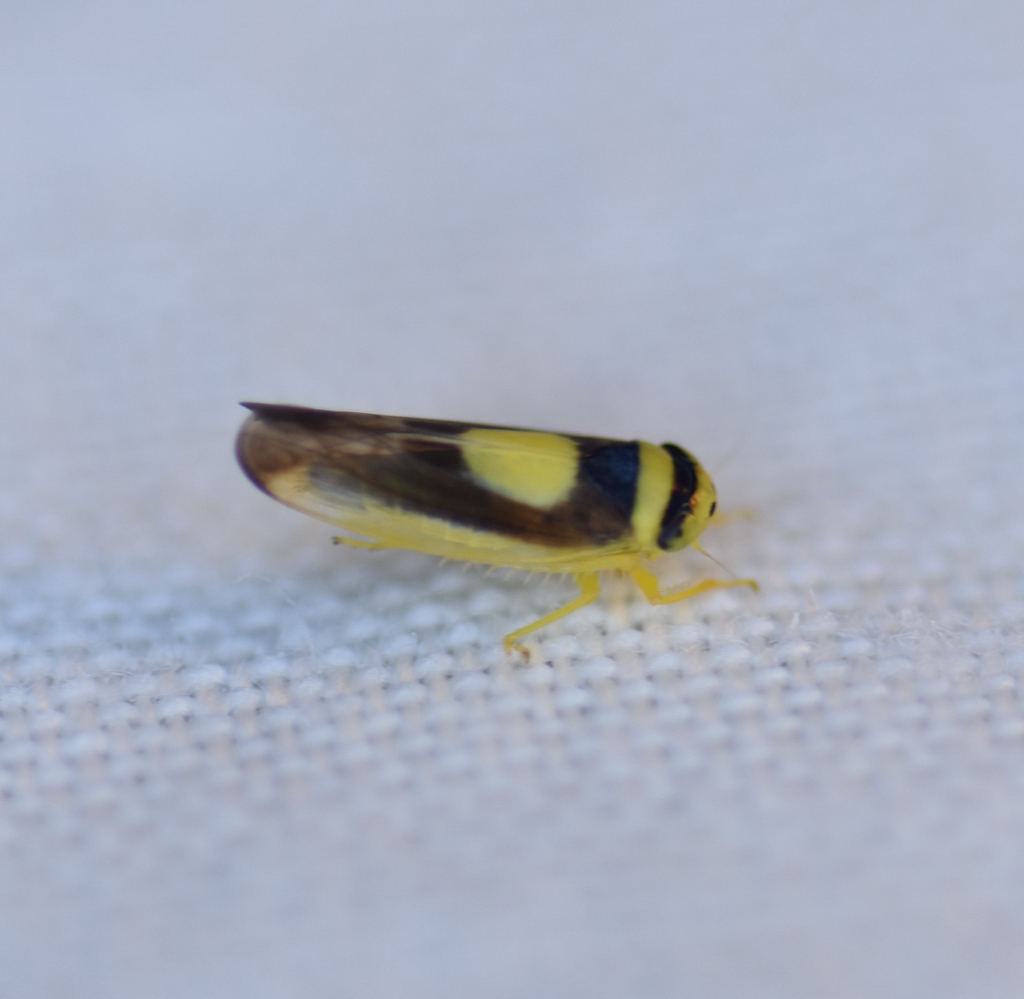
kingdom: Animalia
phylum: Arthropoda
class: Insecta
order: Hemiptera
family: Cicadellidae
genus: Colladonus
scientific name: Colladonus clitellarius
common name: The saddleback leafhopper
